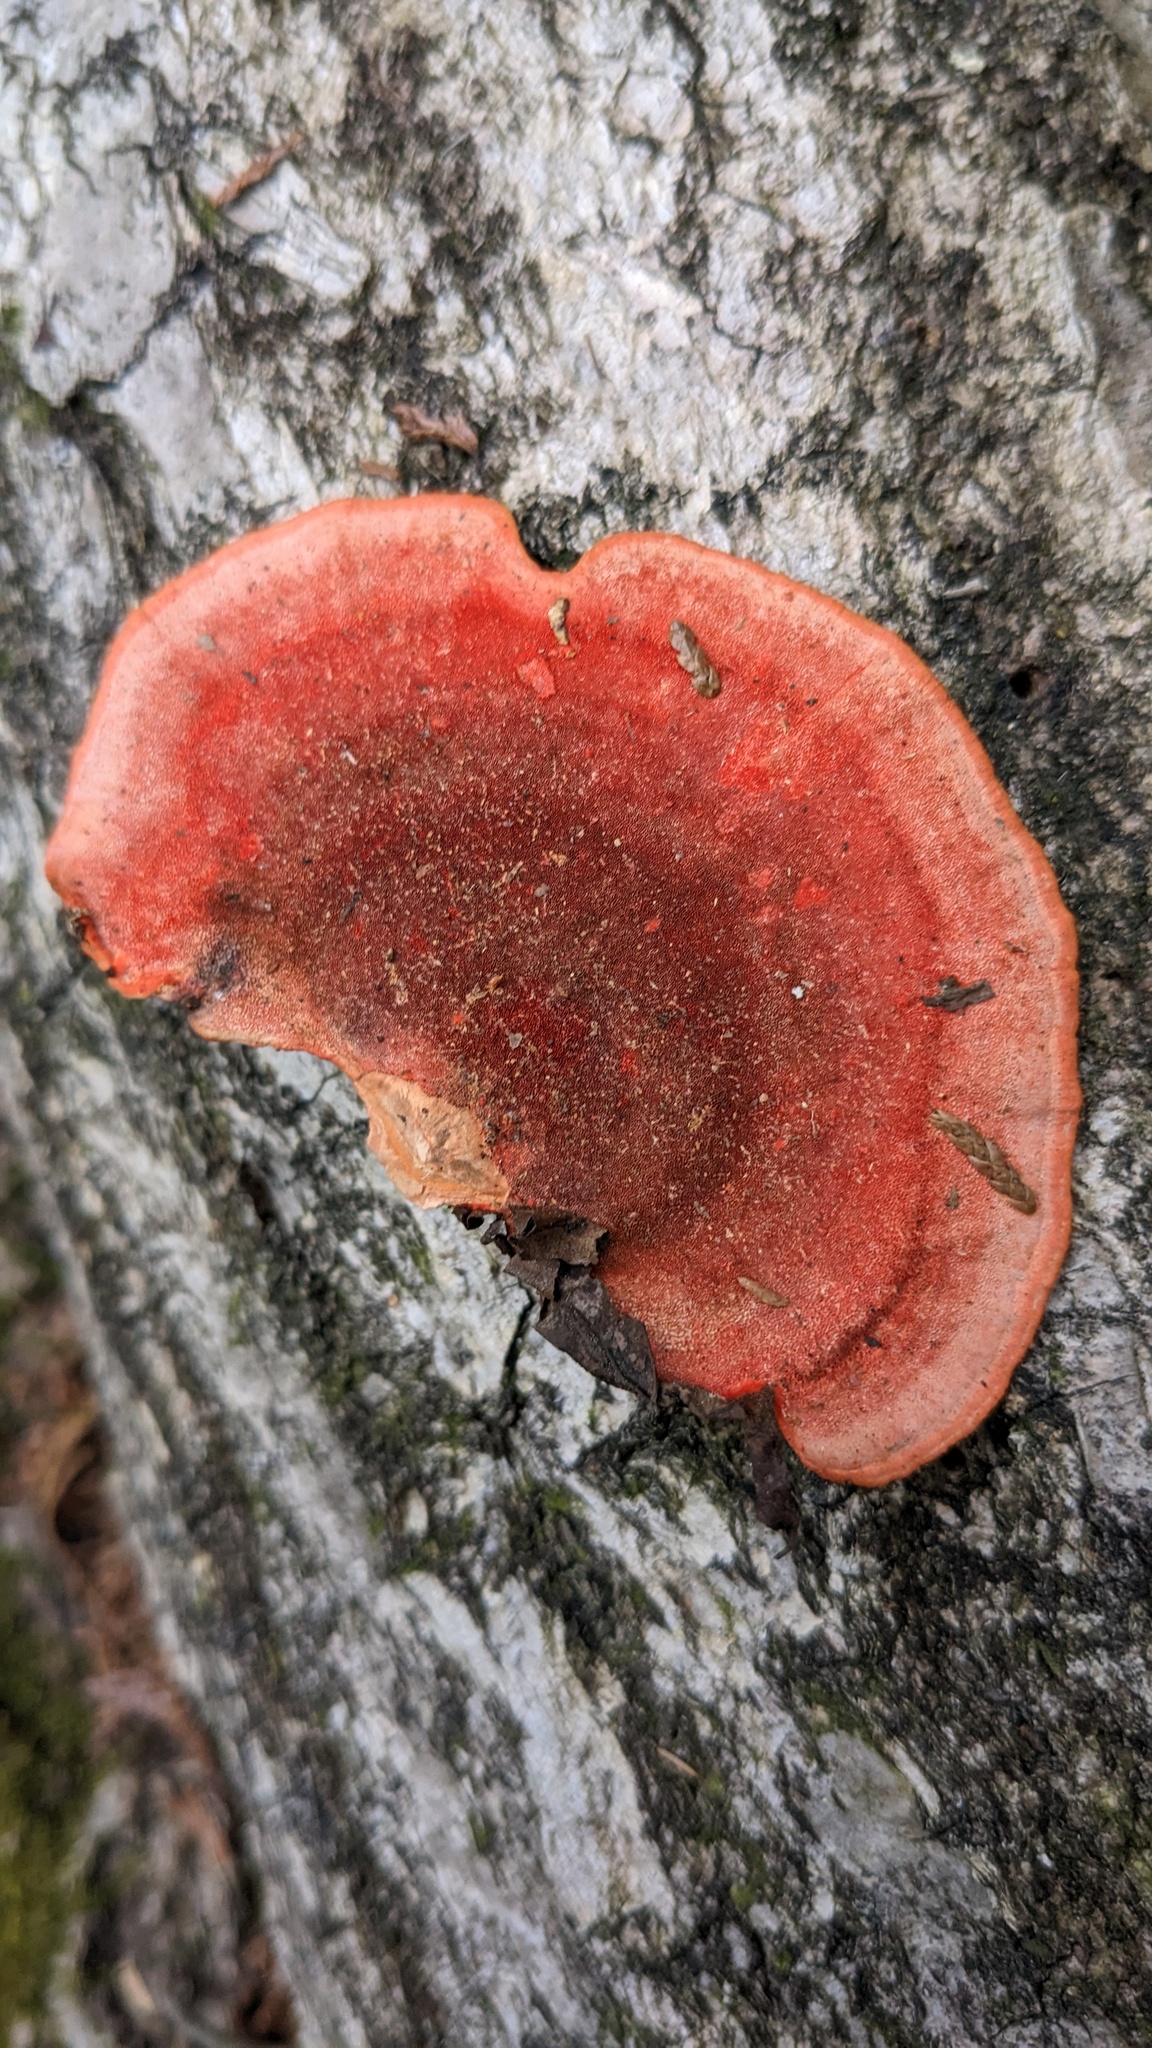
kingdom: Fungi
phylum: Basidiomycota
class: Agaricomycetes
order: Polyporales
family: Polyporaceae
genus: Trametes
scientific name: Trametes coccinea
